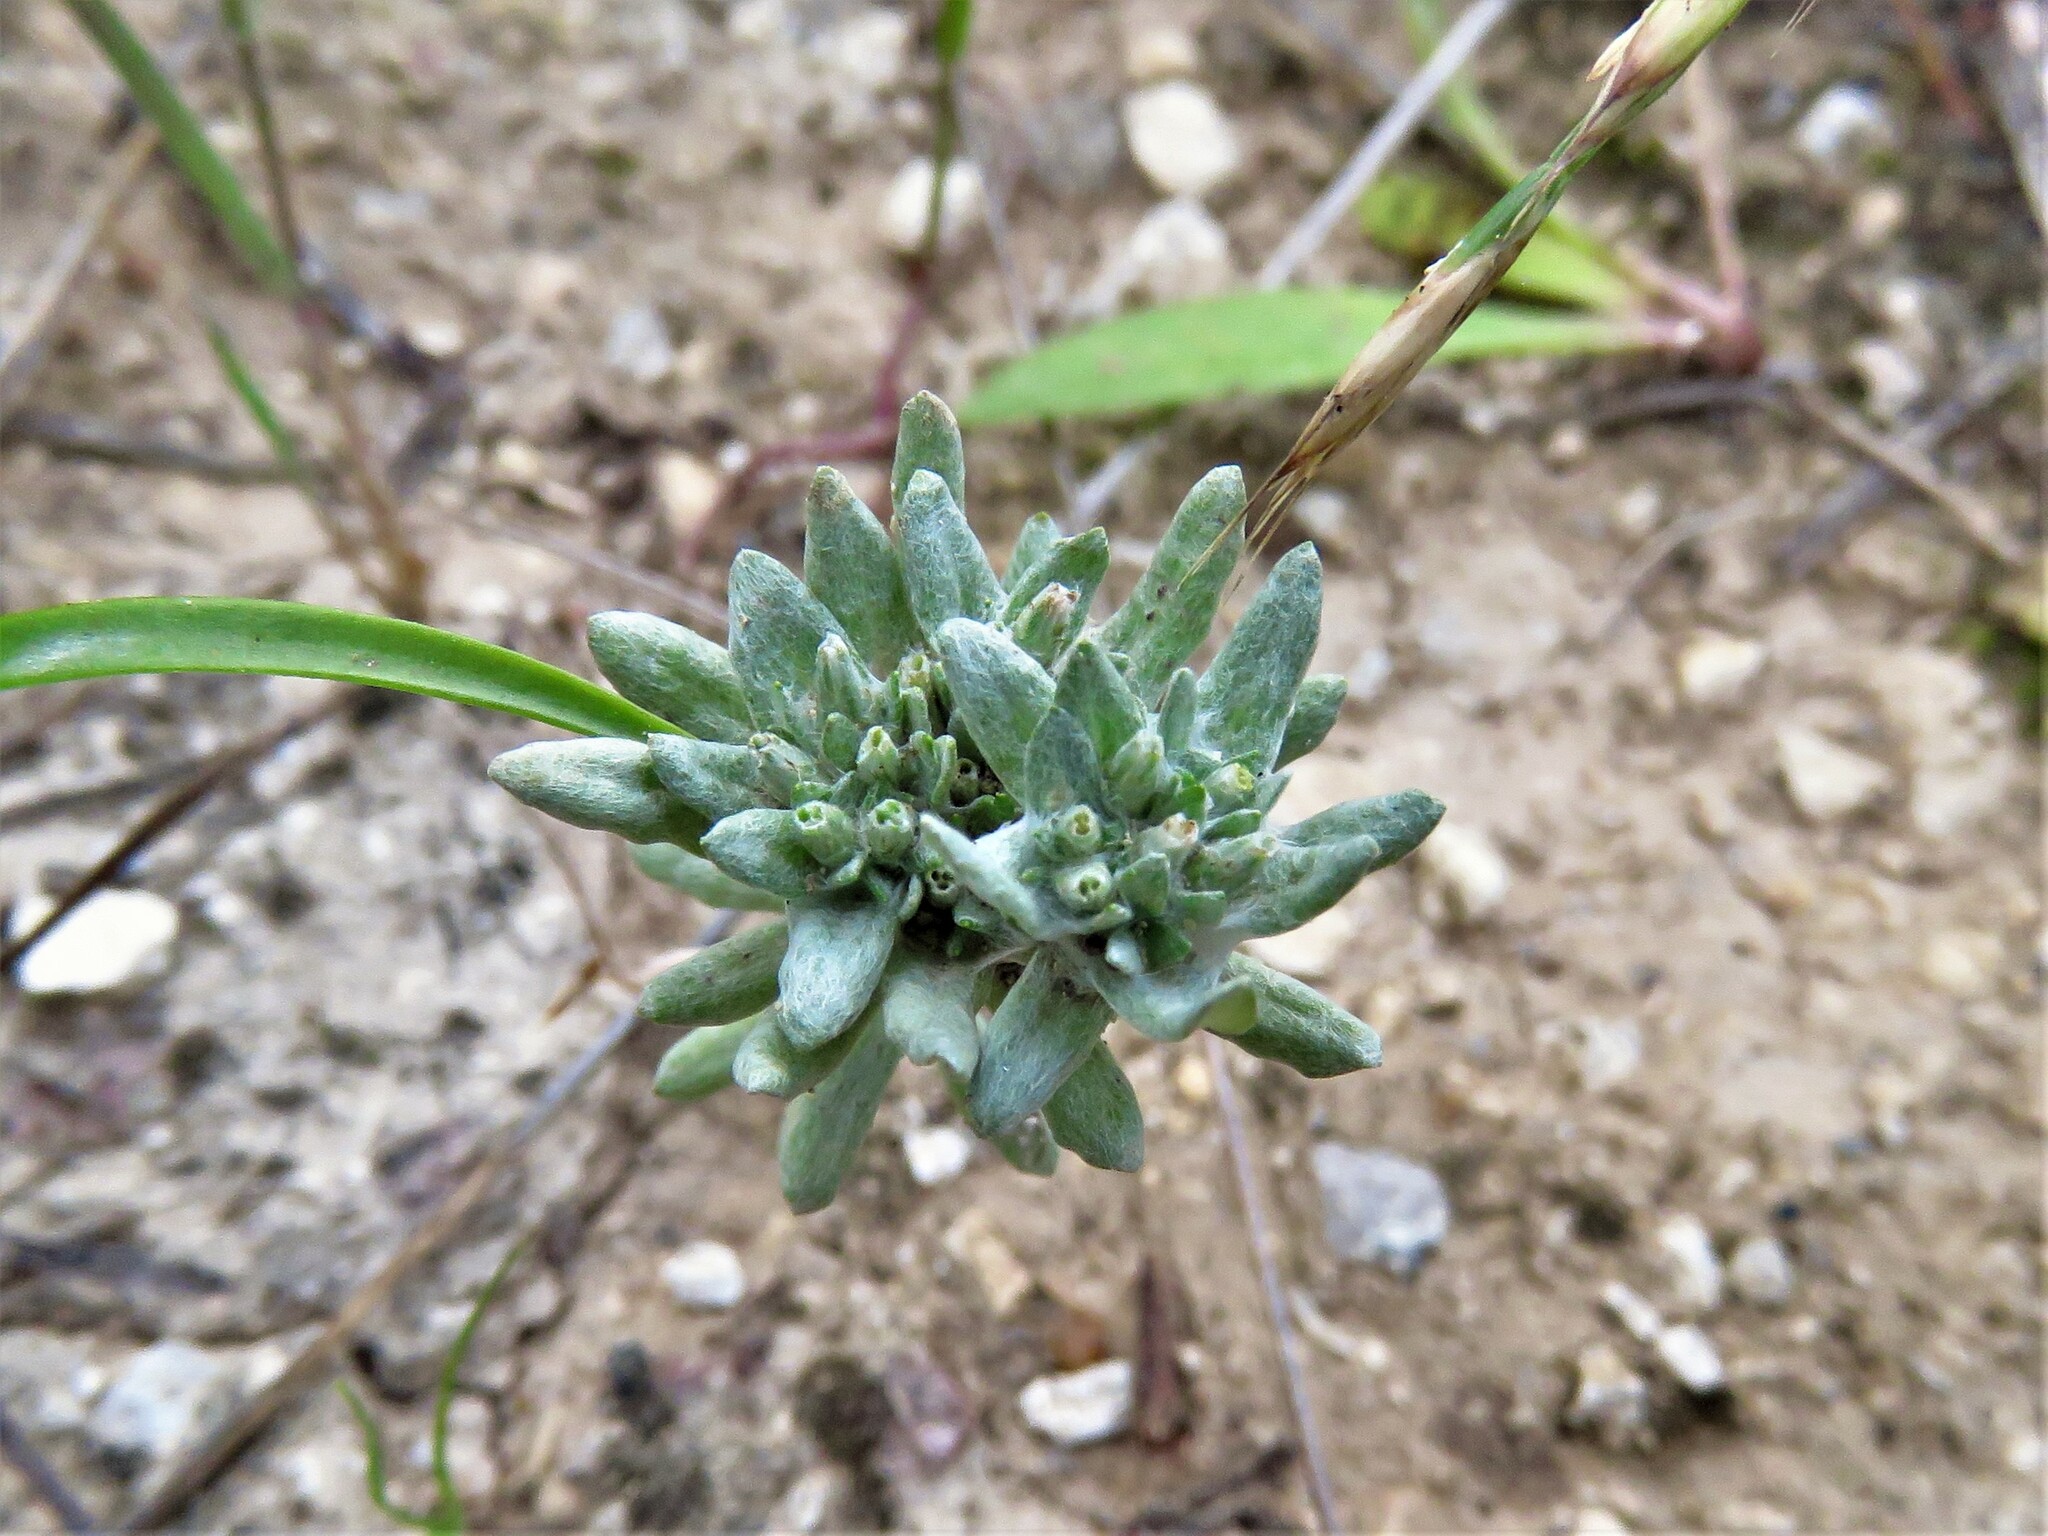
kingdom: Plantae
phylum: Tracheophyta
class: Magnoliopsida
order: Asterales
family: Asteraceae
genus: Diaperia
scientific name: Diaperia prolifera
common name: Big-head rabbit-tobacco
